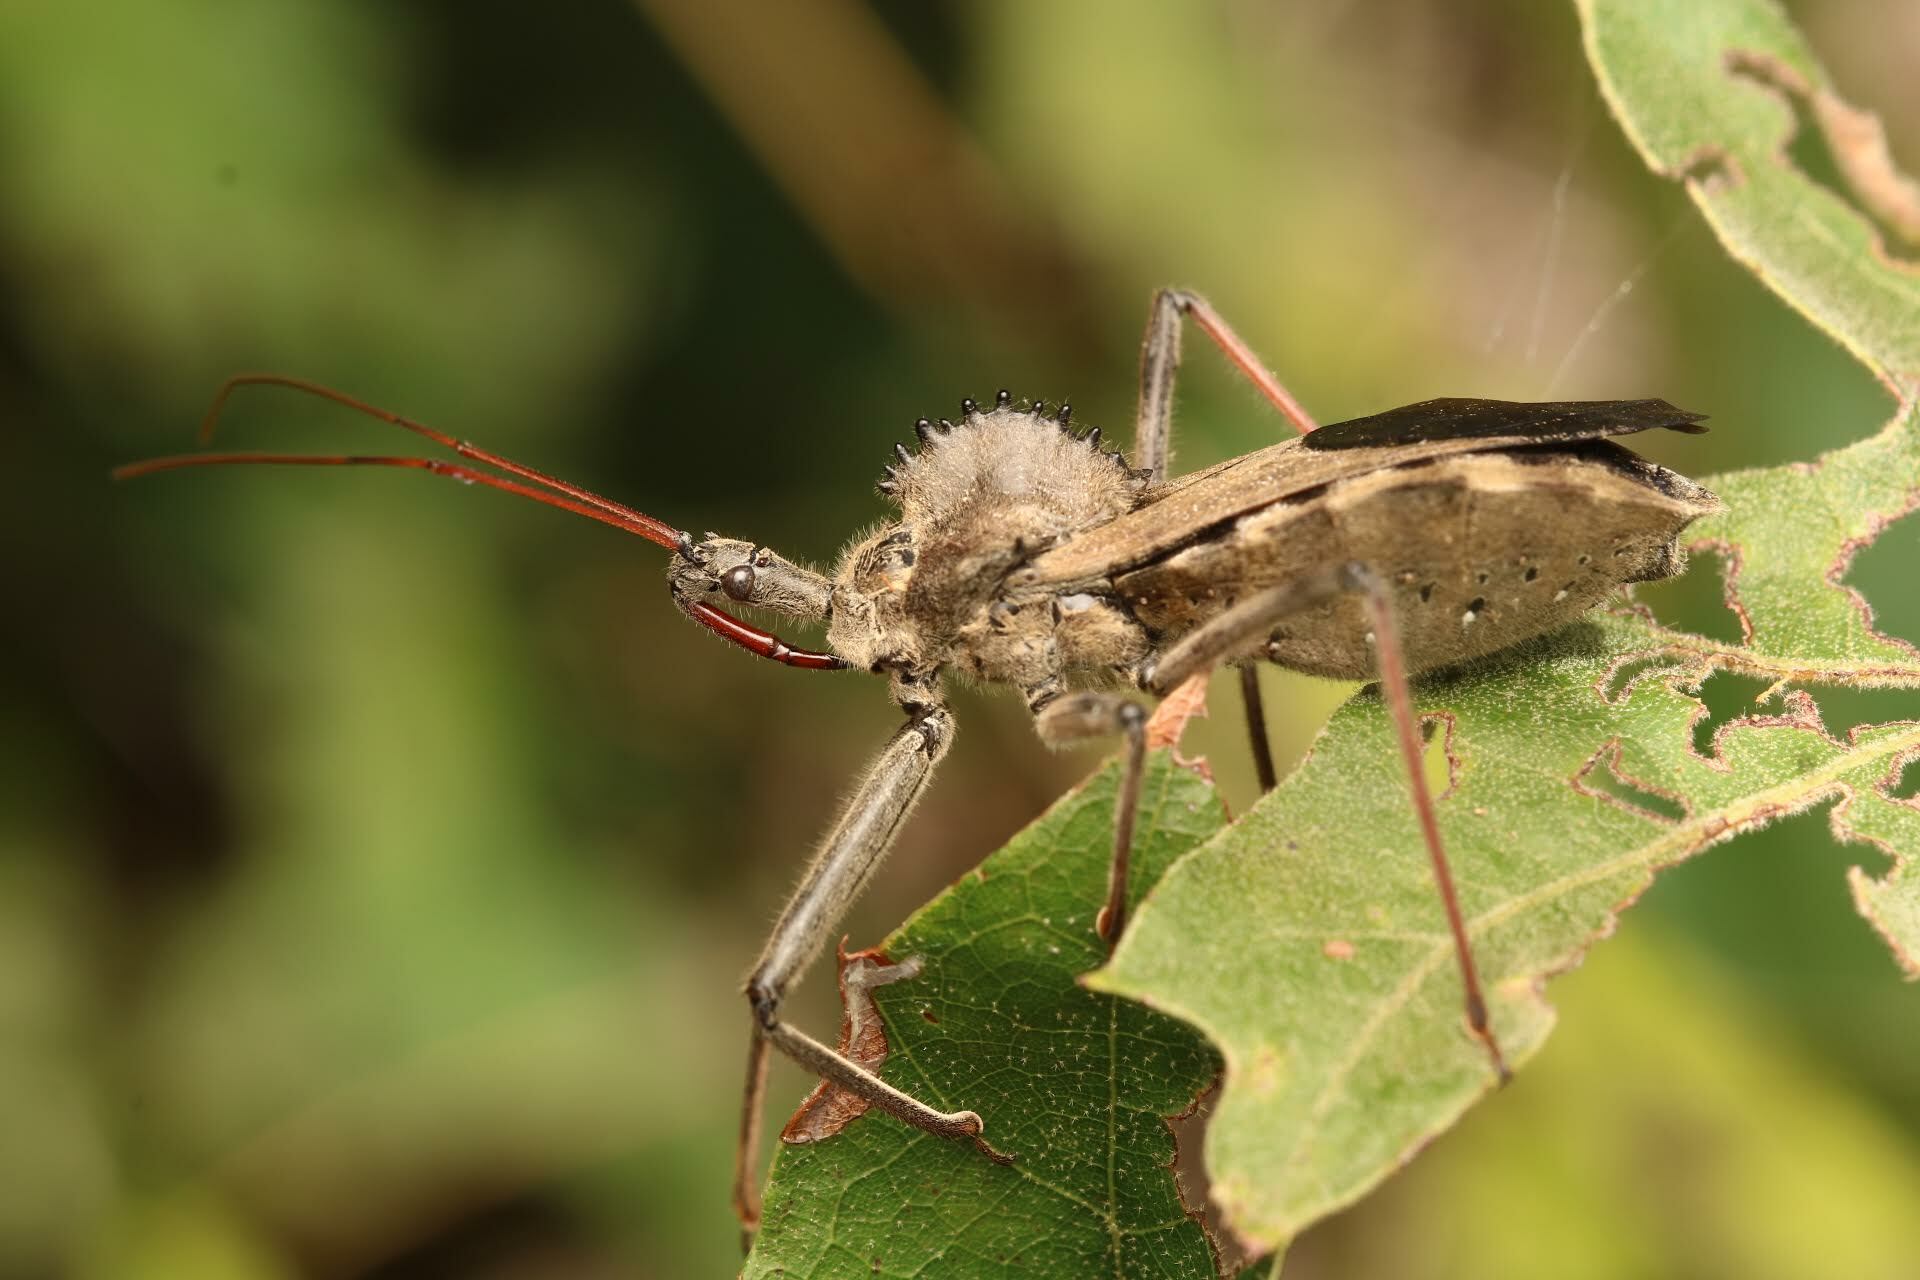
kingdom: Animalia
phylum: Arthropoda
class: Insecta
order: Hemiptera
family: Reduviidae
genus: Arilus
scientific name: Arilus cristatus
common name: North american wheel bug
